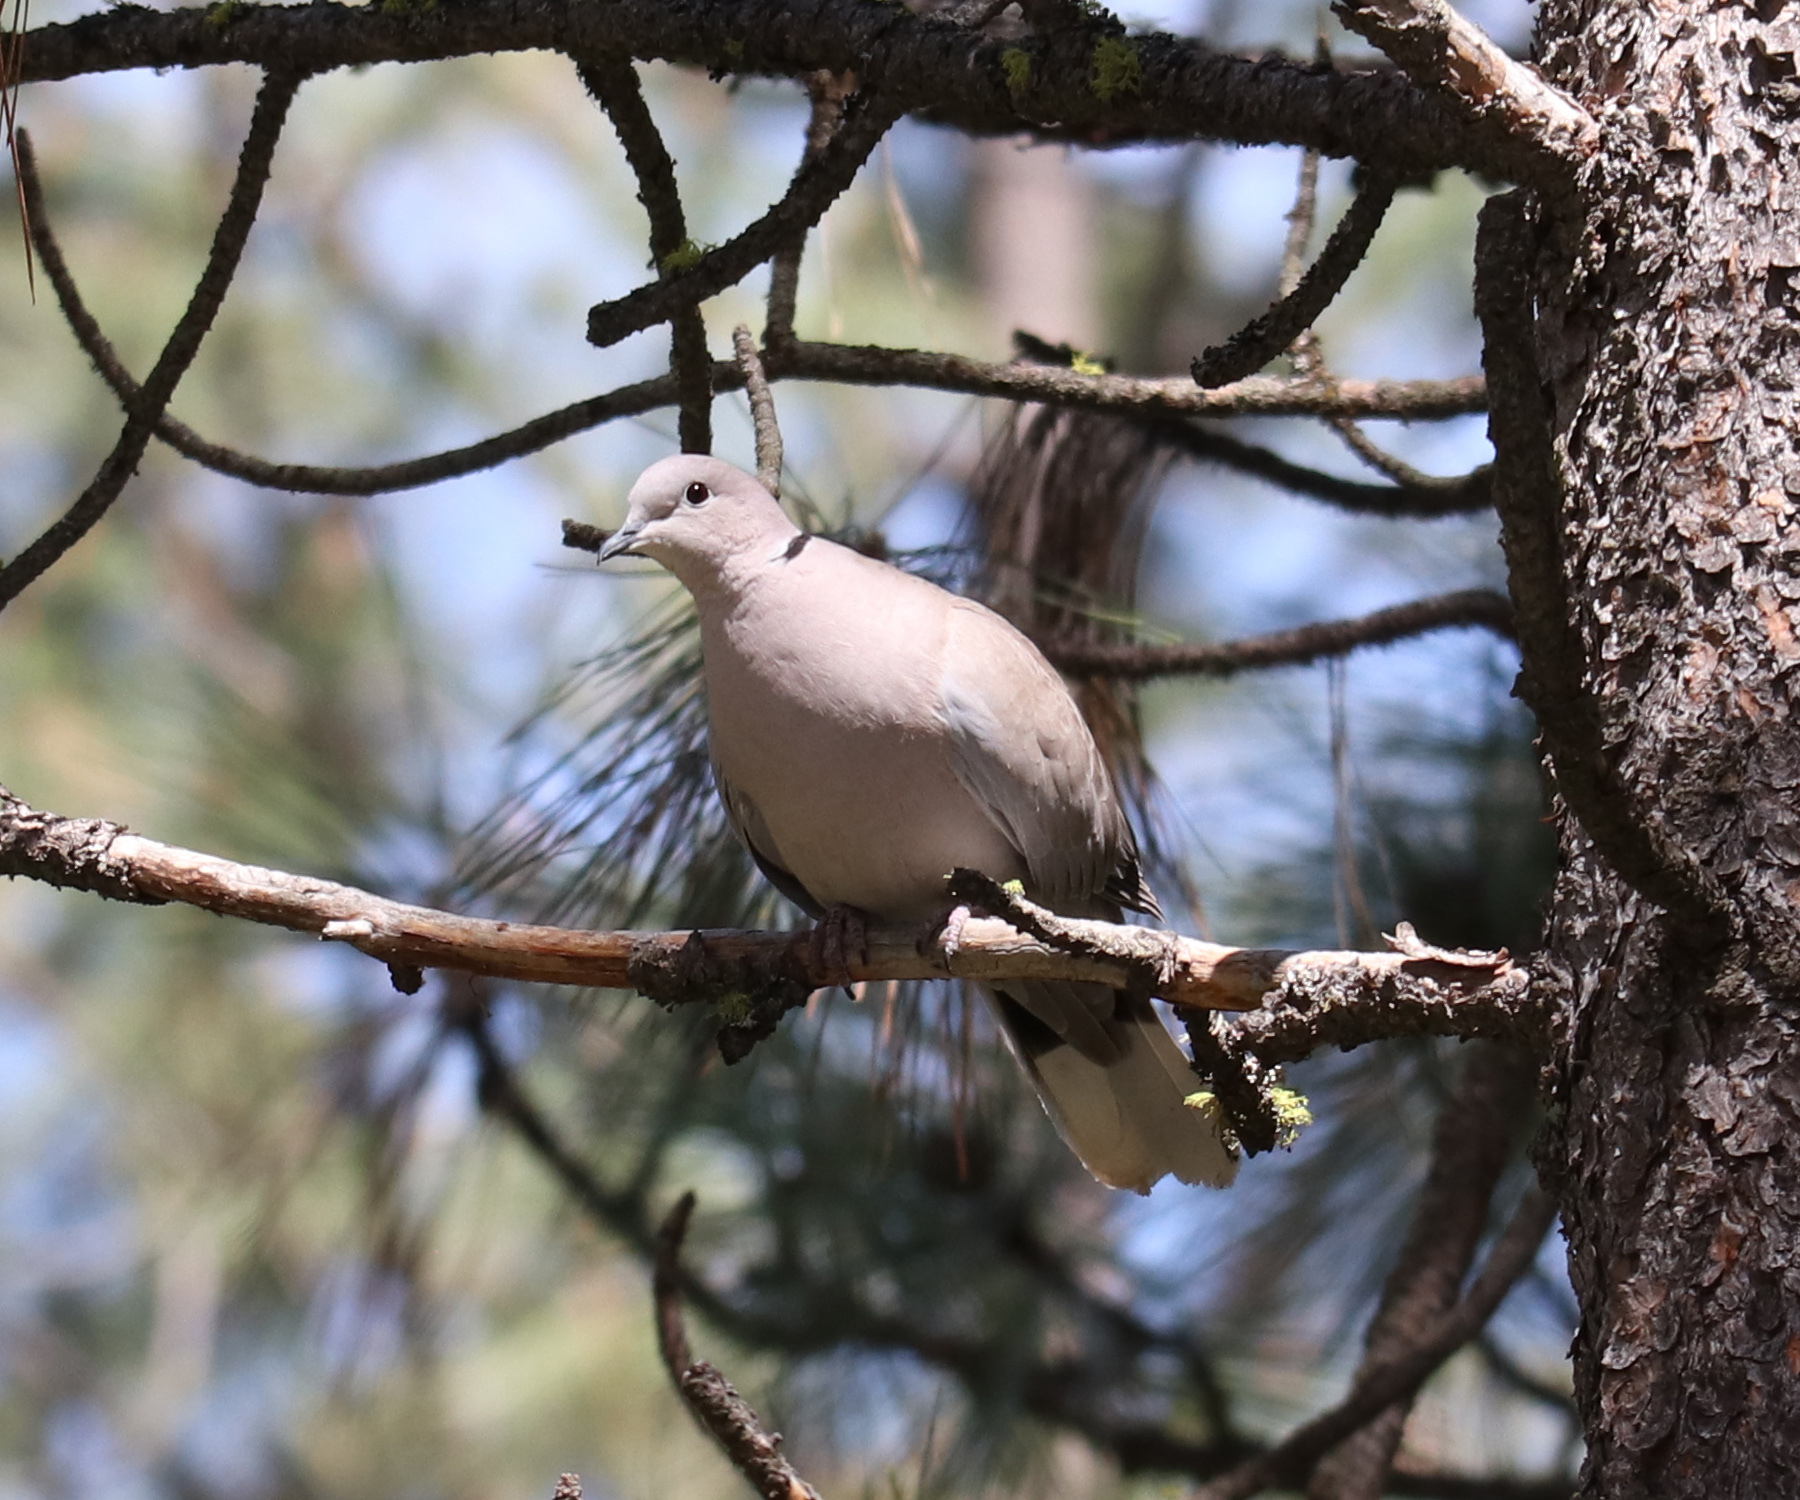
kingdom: Animalia
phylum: Chordata
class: Aves
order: Columbiformes
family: Columbidae
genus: Streptopelia
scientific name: Streptopelia decaocto
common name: Eurasian collared dove
